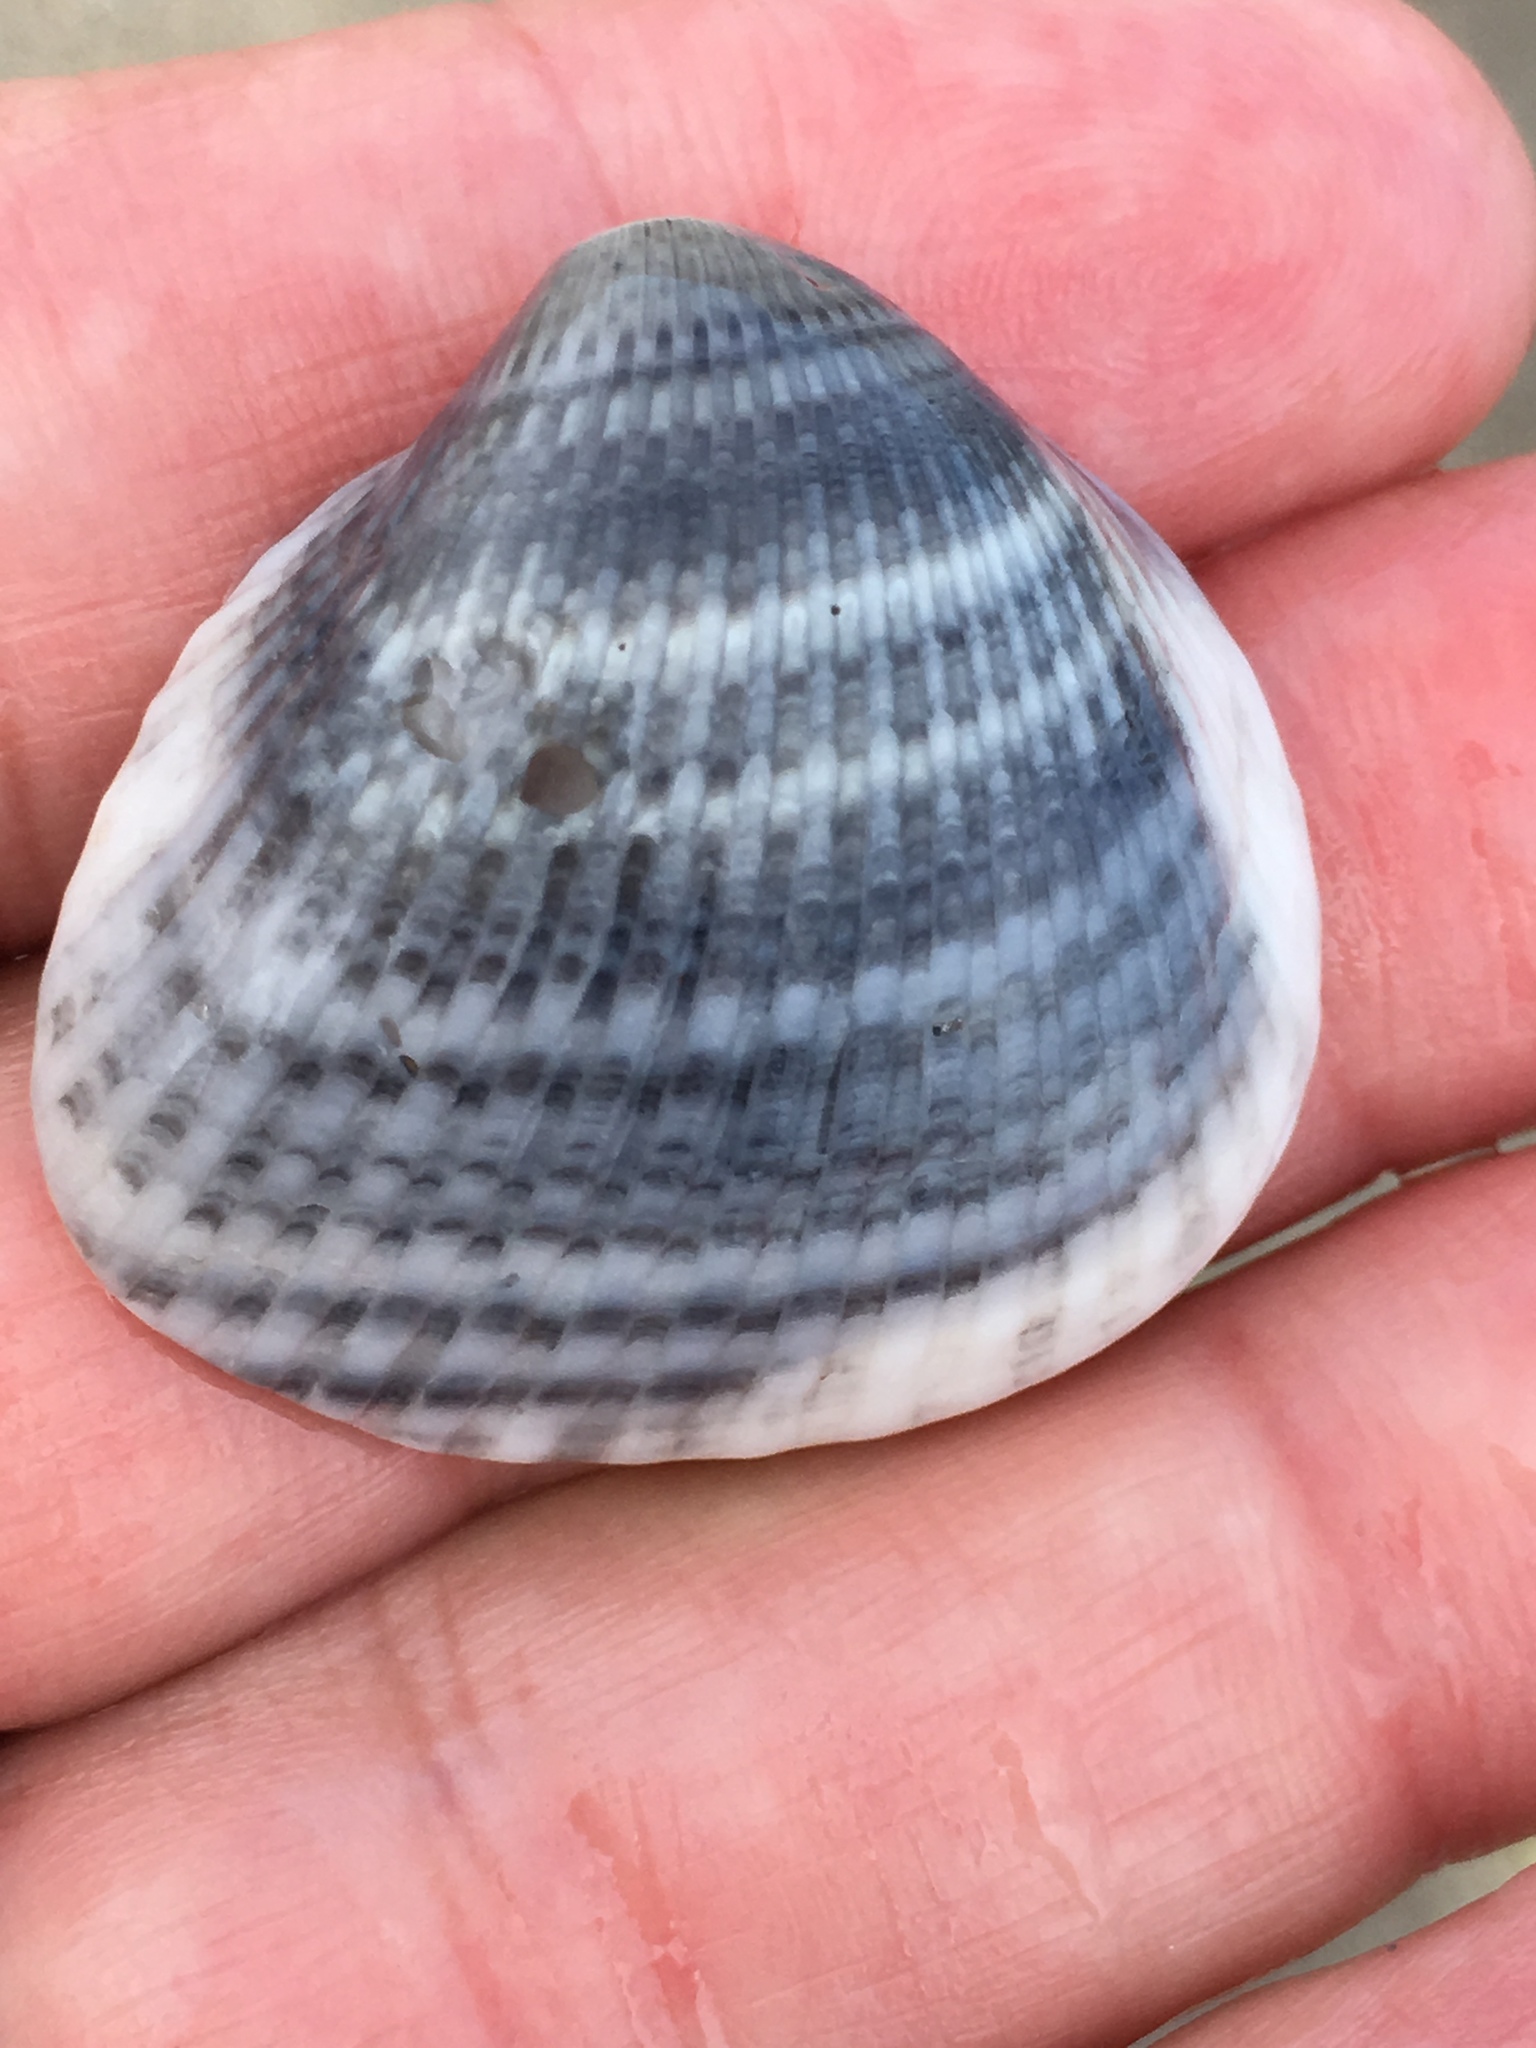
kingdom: Animalia
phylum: Mollusca
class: Bivalvia
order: Arcida
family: Noetiidae
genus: Noetia
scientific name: Noetia ponderosa
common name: Ponderous ark
